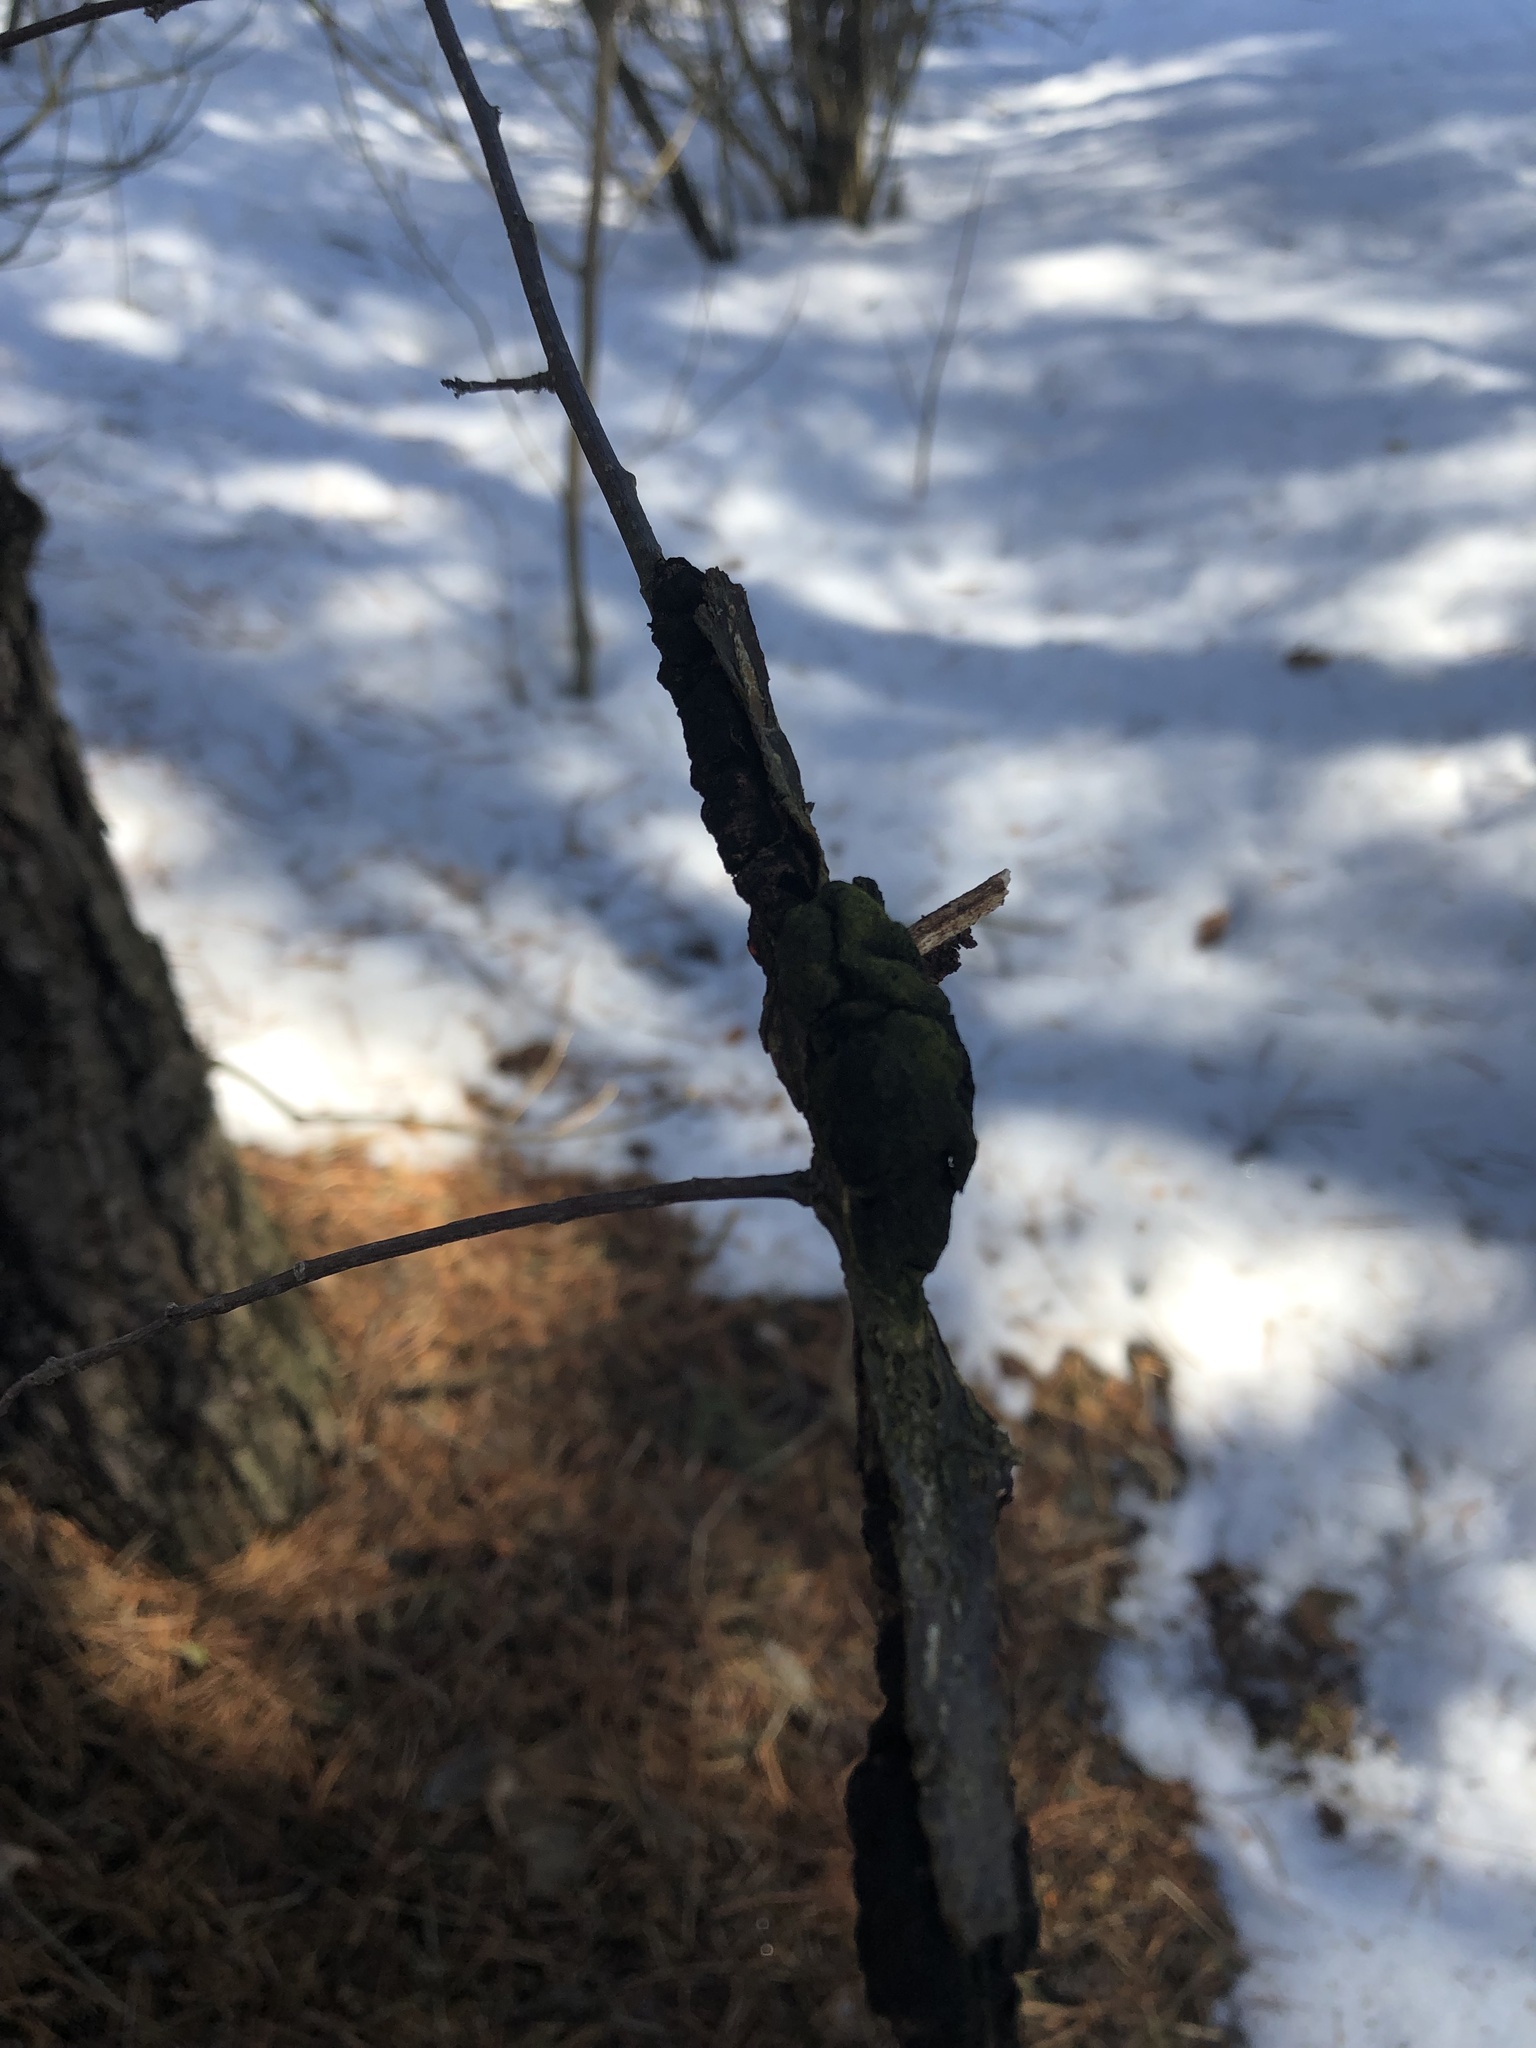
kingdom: Fungi
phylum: Ascomycota
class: Dothideomycetes
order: Venturiales
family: Venturiaceae
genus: Apiosporina
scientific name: Apiosporina morbosa
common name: Black knot
